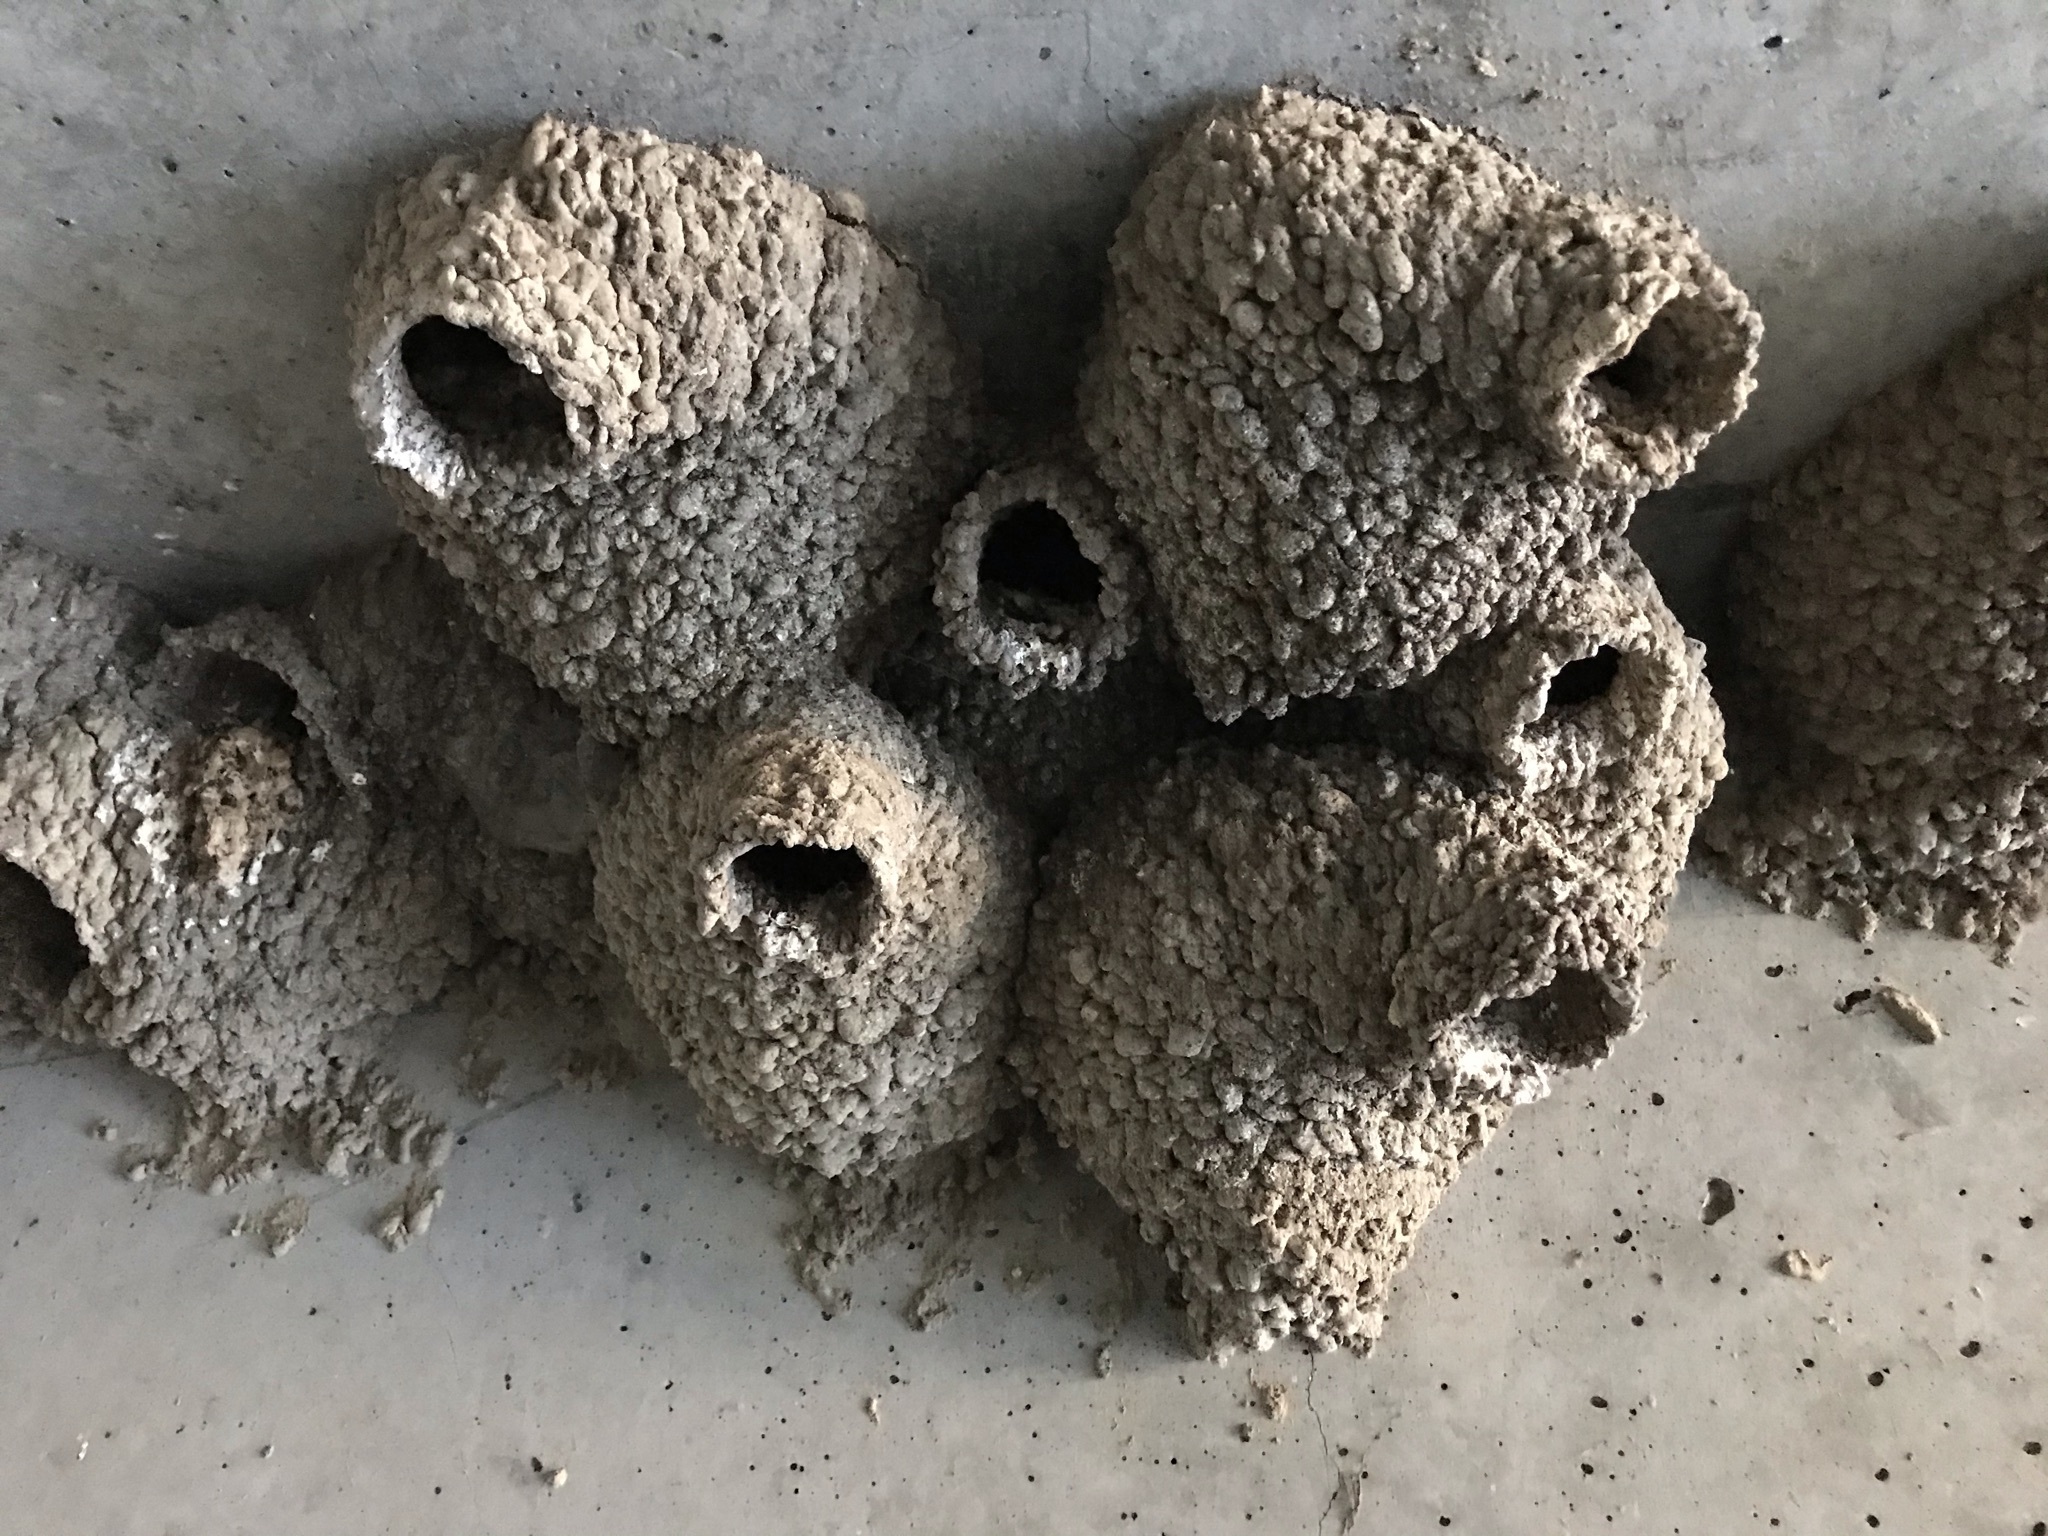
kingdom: Animalia
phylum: Chordata
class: Aves
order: Passeriformes
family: Hirundinidae
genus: Petrochelidon
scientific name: Petrochelidon pyrrhonota
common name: American cliff swallow
